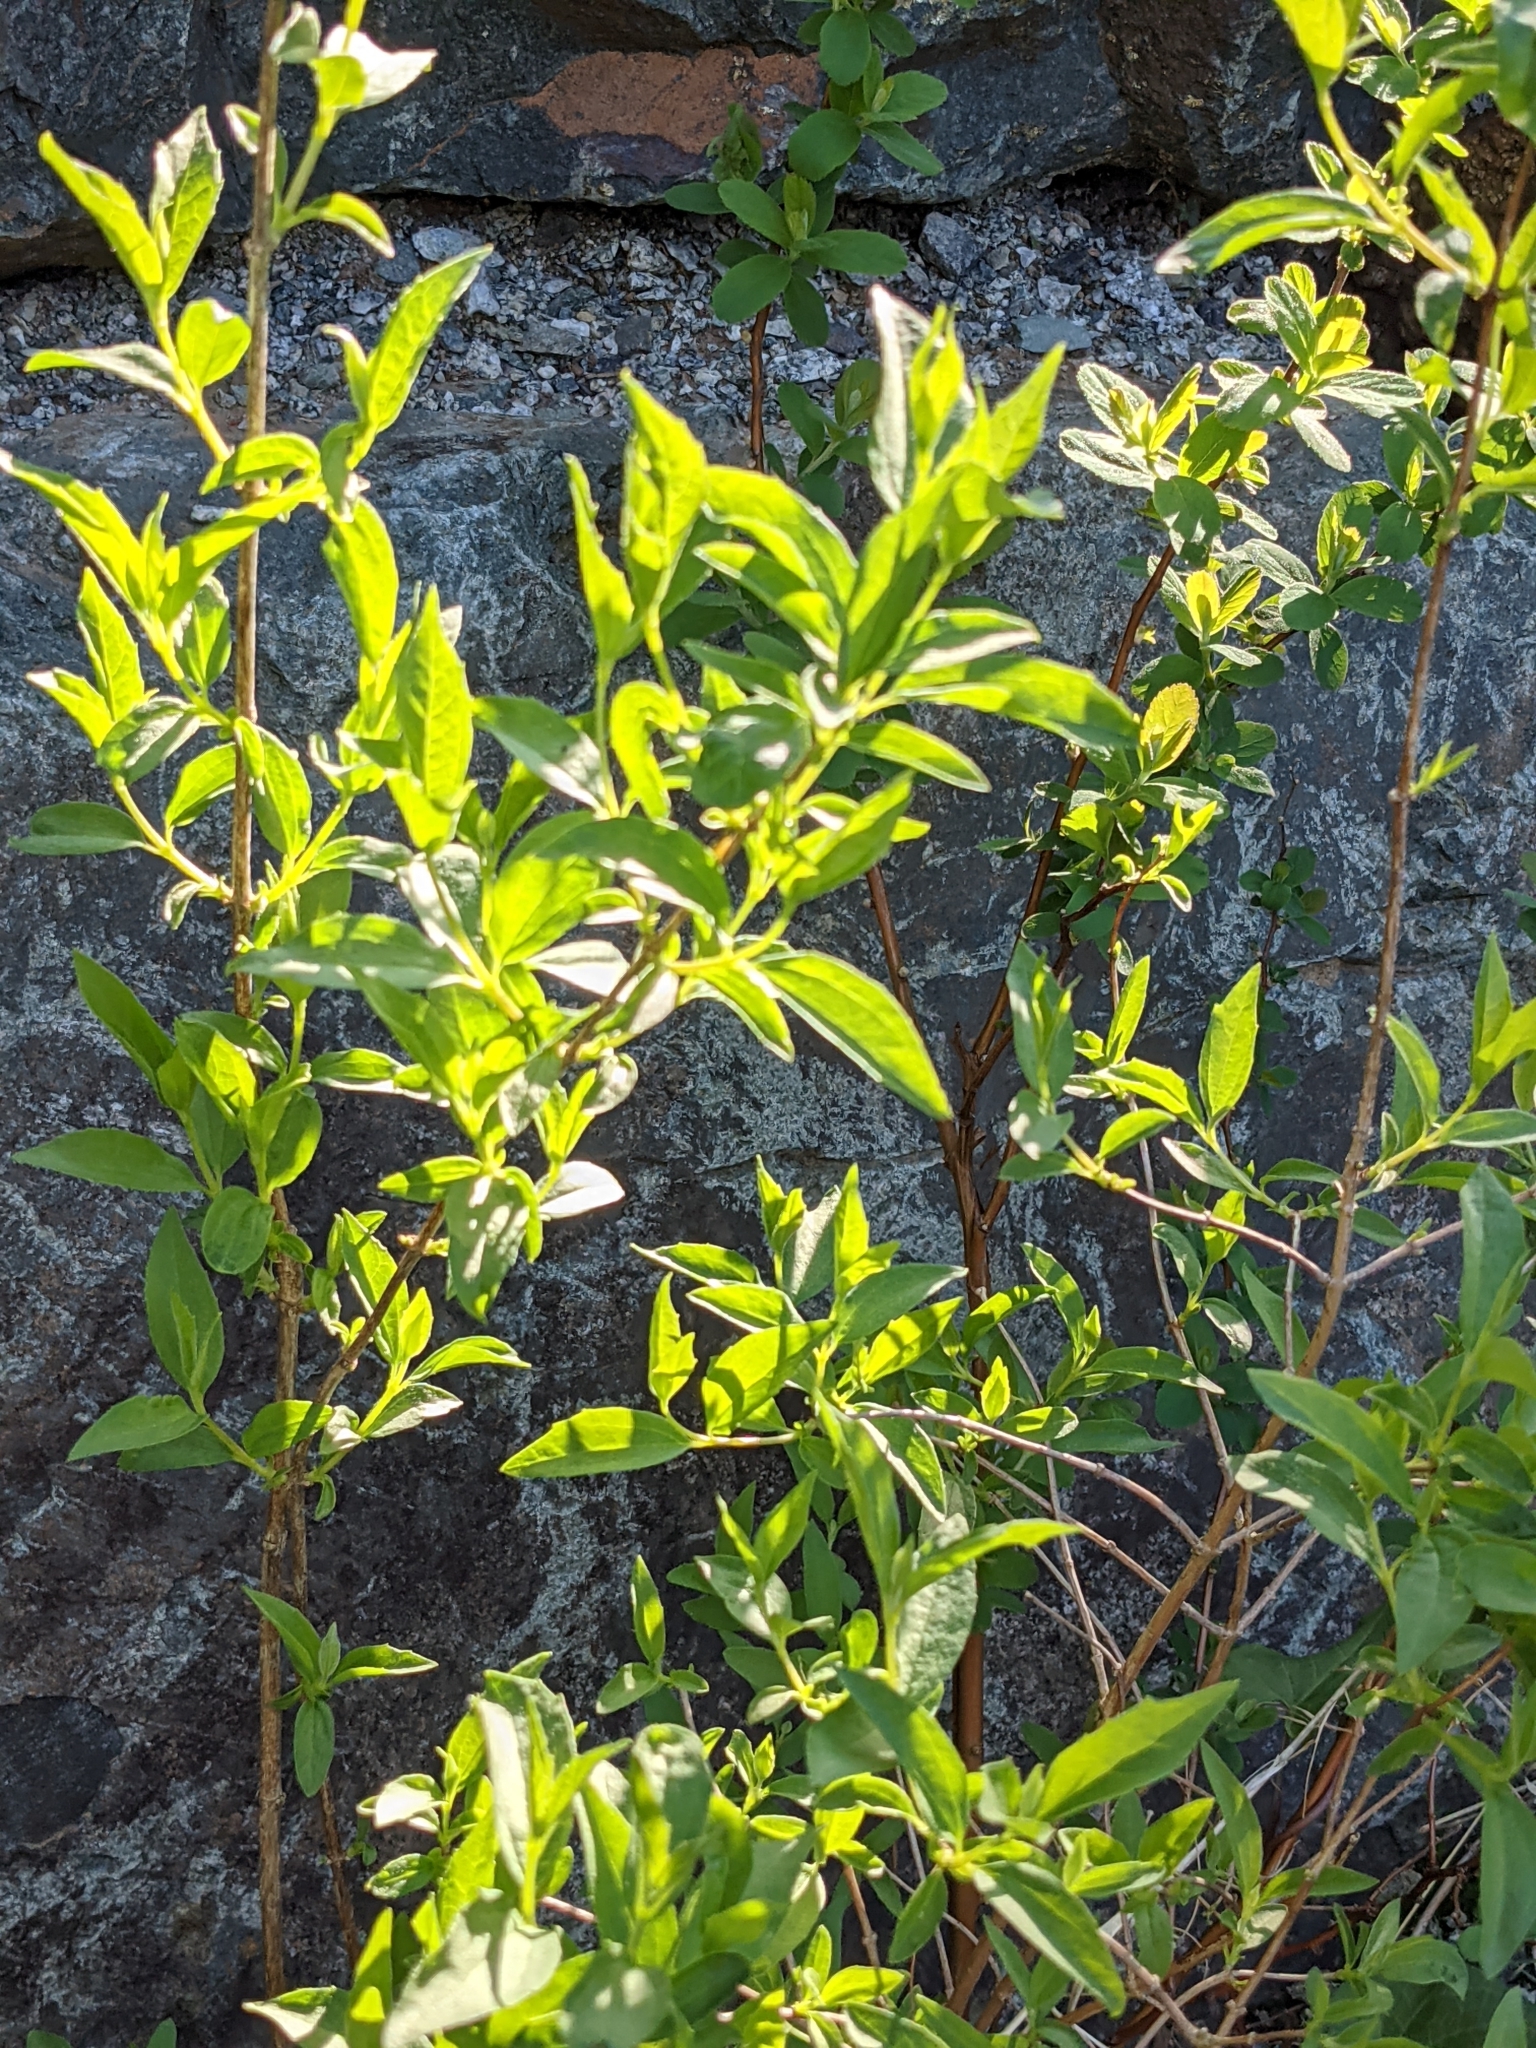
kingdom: Plantae
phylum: Tracheophyta
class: Magnoliopsida
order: Lamiales
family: Scrophulariaceae
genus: Buddleja
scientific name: Buddleja davidii
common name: Butterfly-bush
